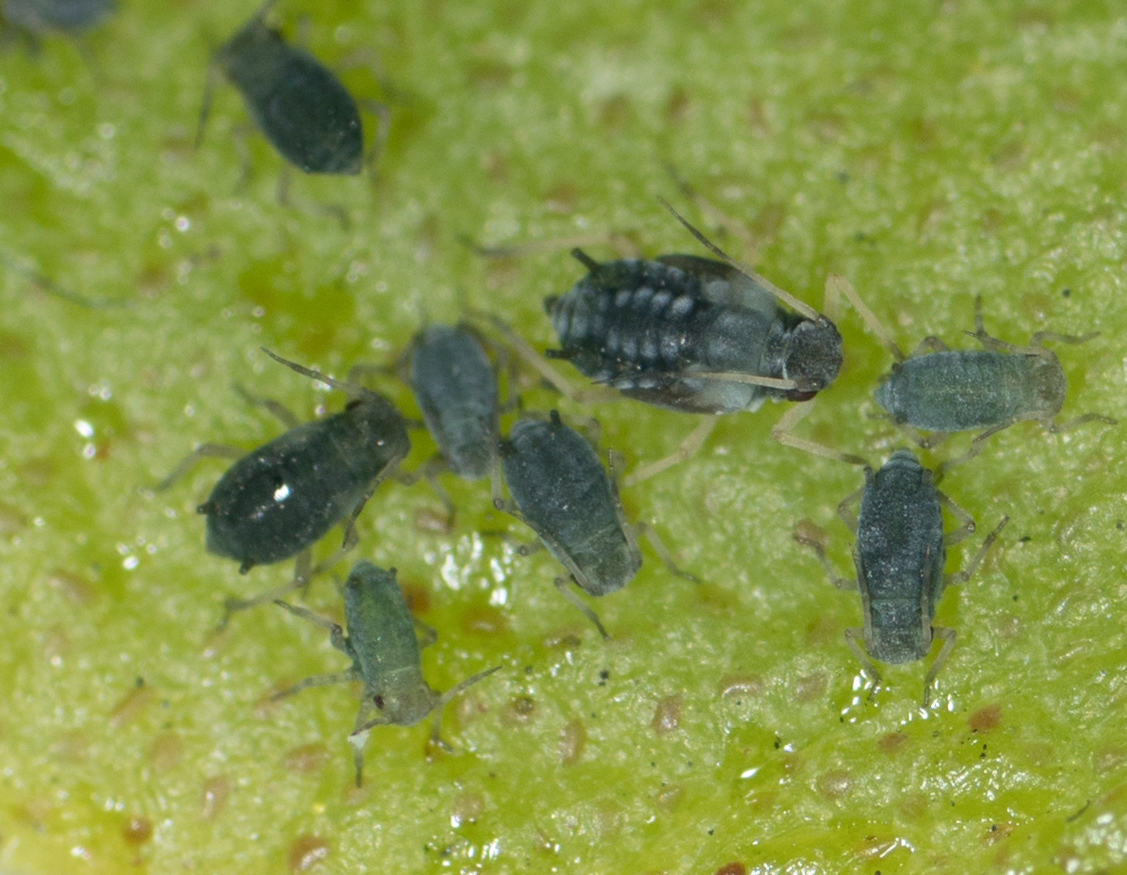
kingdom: Animalia
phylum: Arthropoda
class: Insecta
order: Hemiptera
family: Aphididae
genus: Aphis
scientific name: Aphis sedi
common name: Cactus aphid
